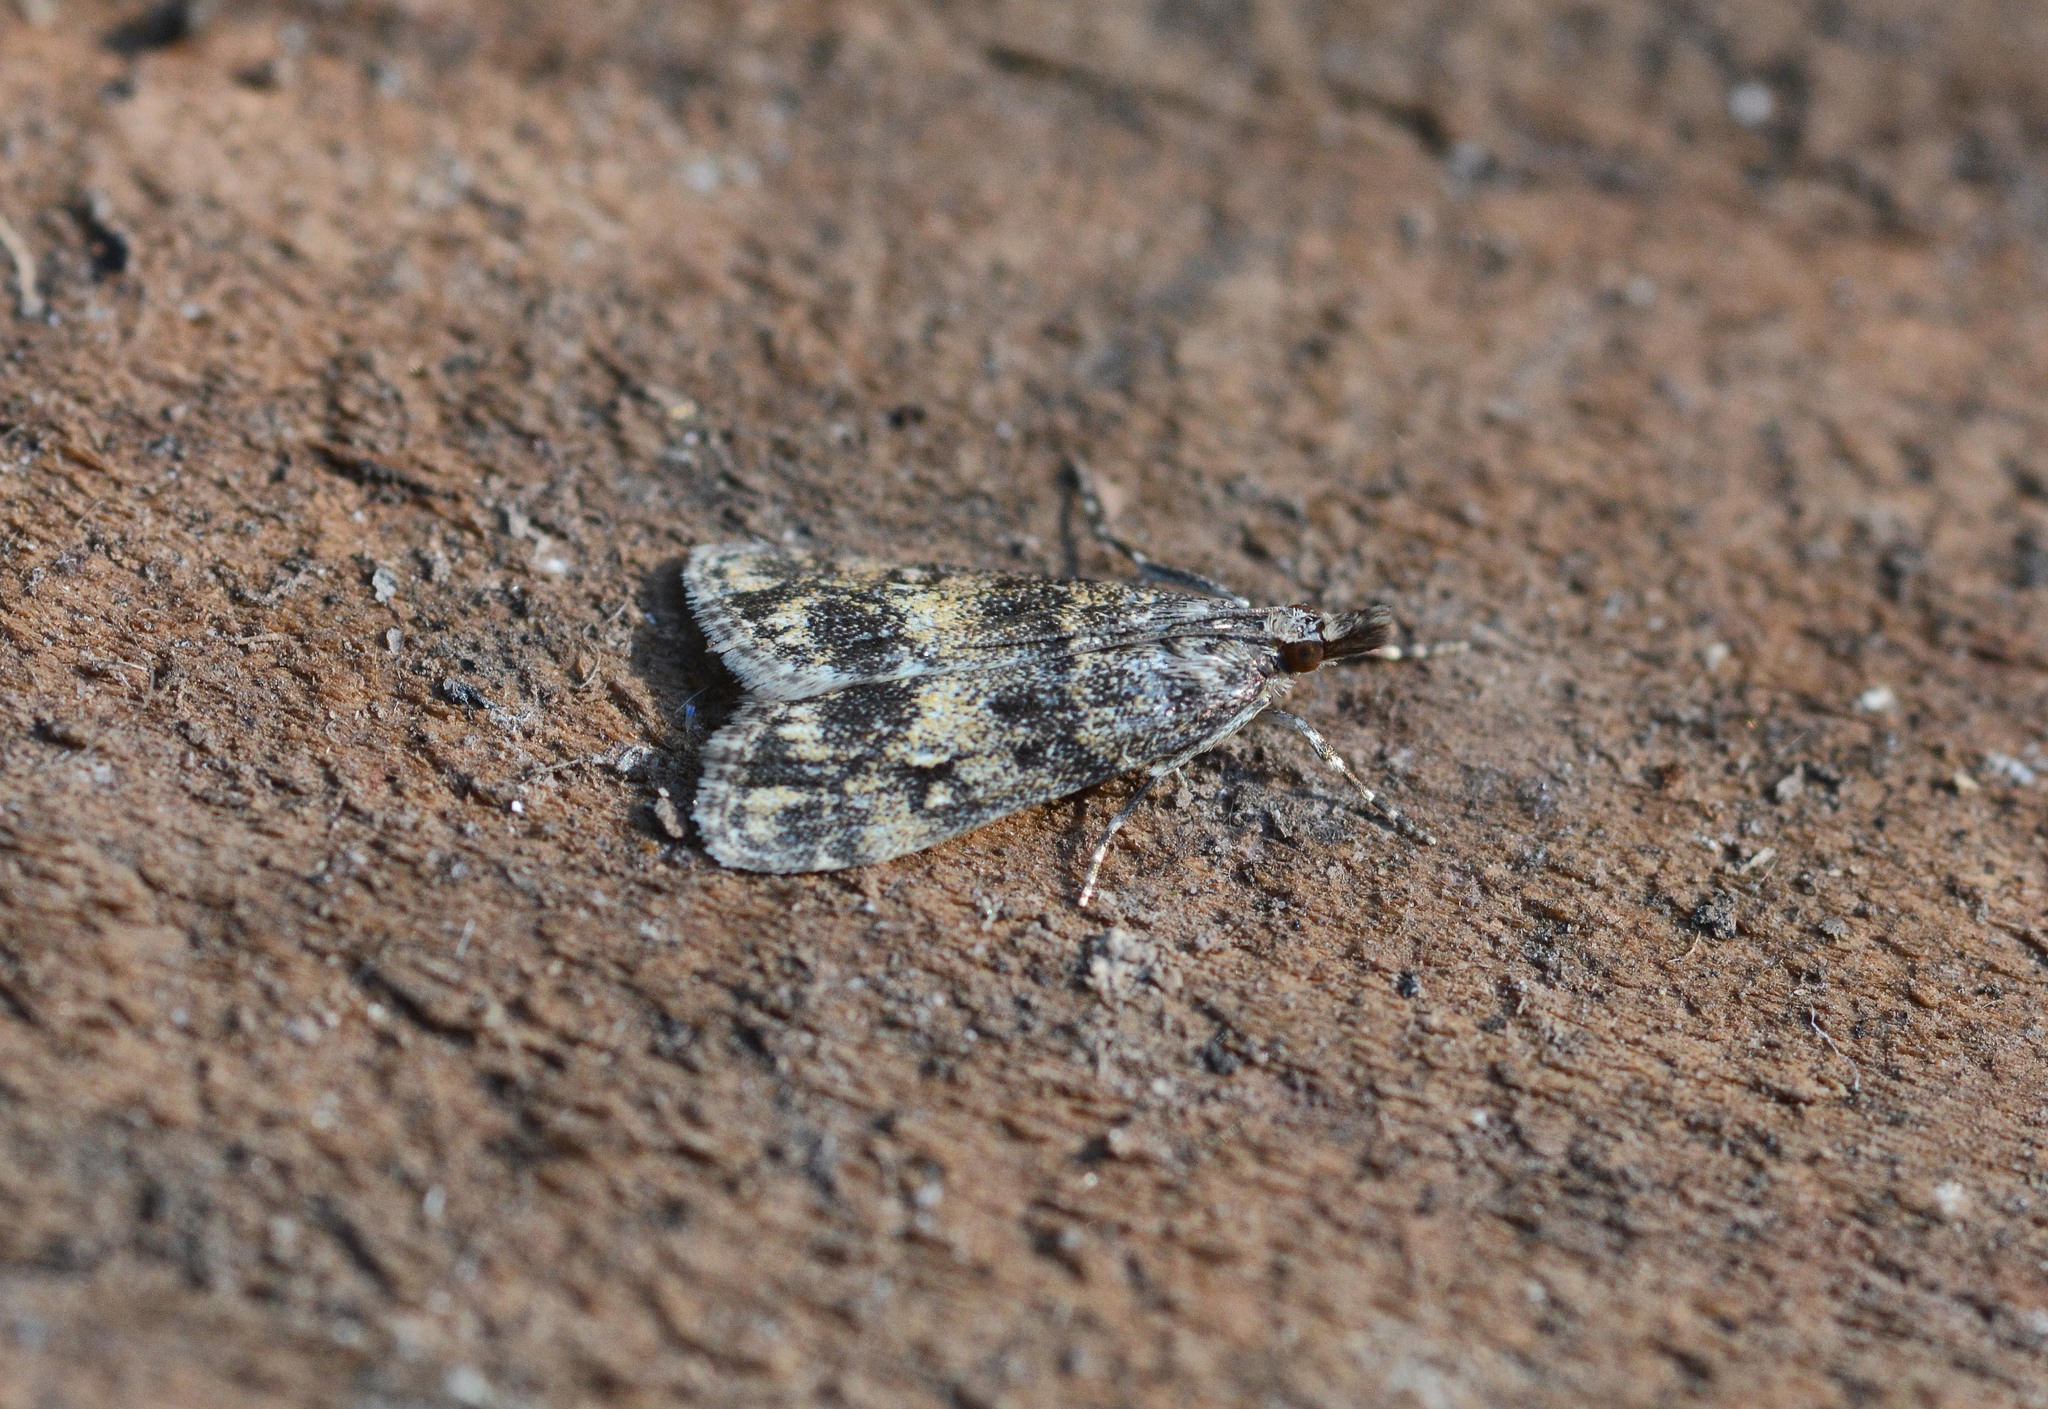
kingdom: Animalia
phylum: Arthropoda
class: Insecta
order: Lepidoptera
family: Crambidae
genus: Eudonia
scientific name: Eudonia lacustrata
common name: Little grey
